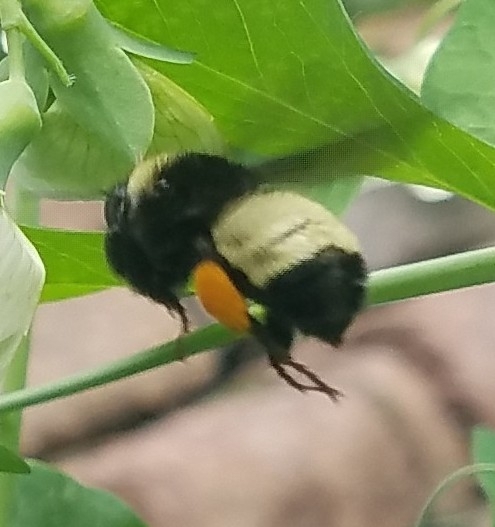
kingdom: Animalia
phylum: Arthropoda
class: Insecta
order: Hymenoptera
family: Apidae
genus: Bombus
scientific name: Bombus pensylvanicus
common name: Bumble bee
